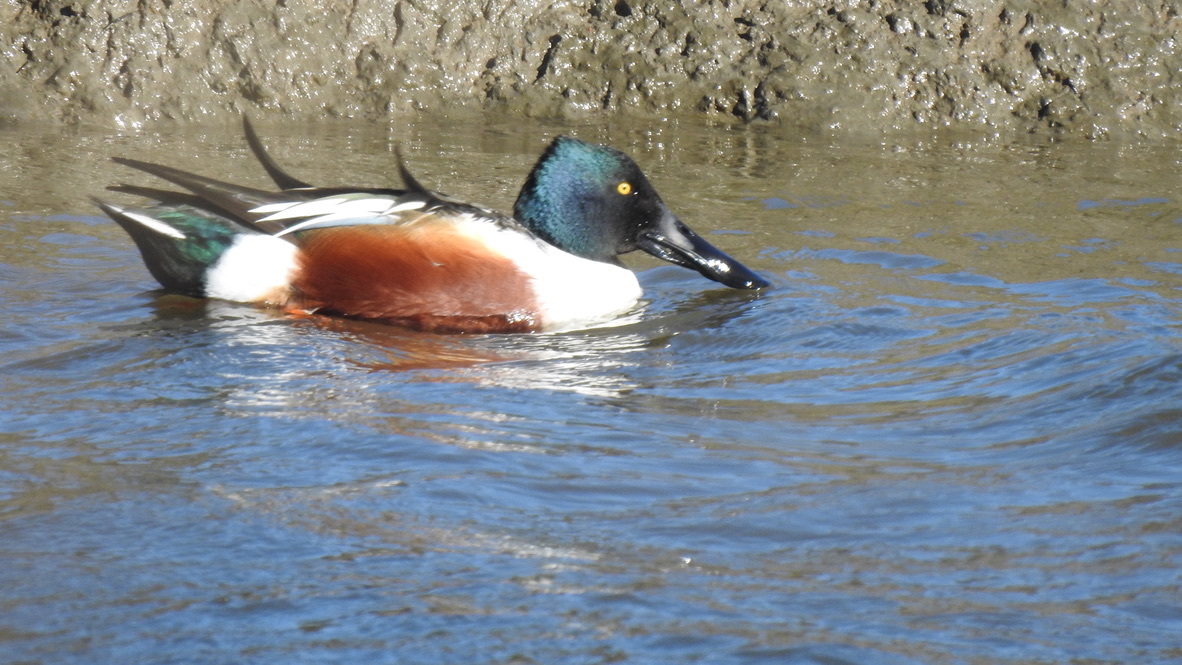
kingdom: Animalia
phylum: Chordata
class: Aves
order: Anseriformes
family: Anatidae
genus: Spatula
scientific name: Spatula clypeata
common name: Northern shoveler
